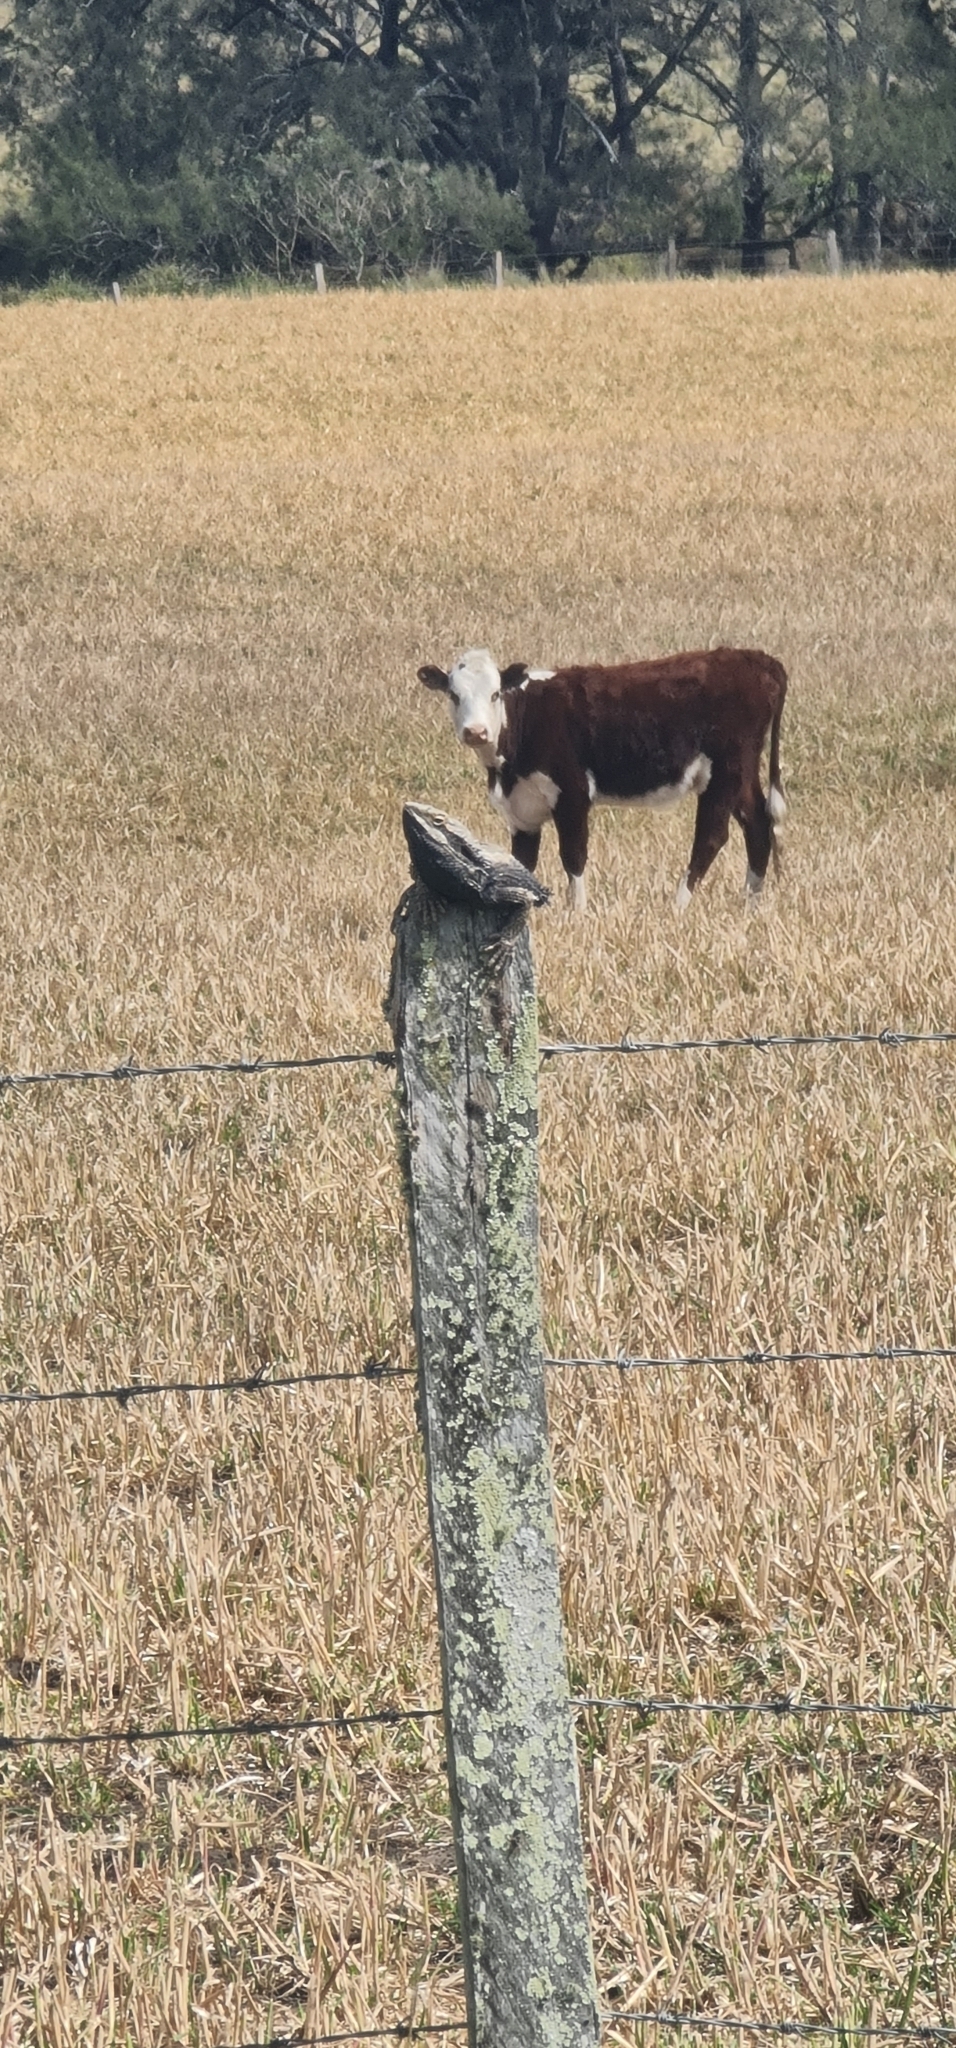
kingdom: Animalia
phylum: Chordata
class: Squamata
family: Agamidae
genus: Pogona
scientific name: Pogona barbata
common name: Bearded dragon
